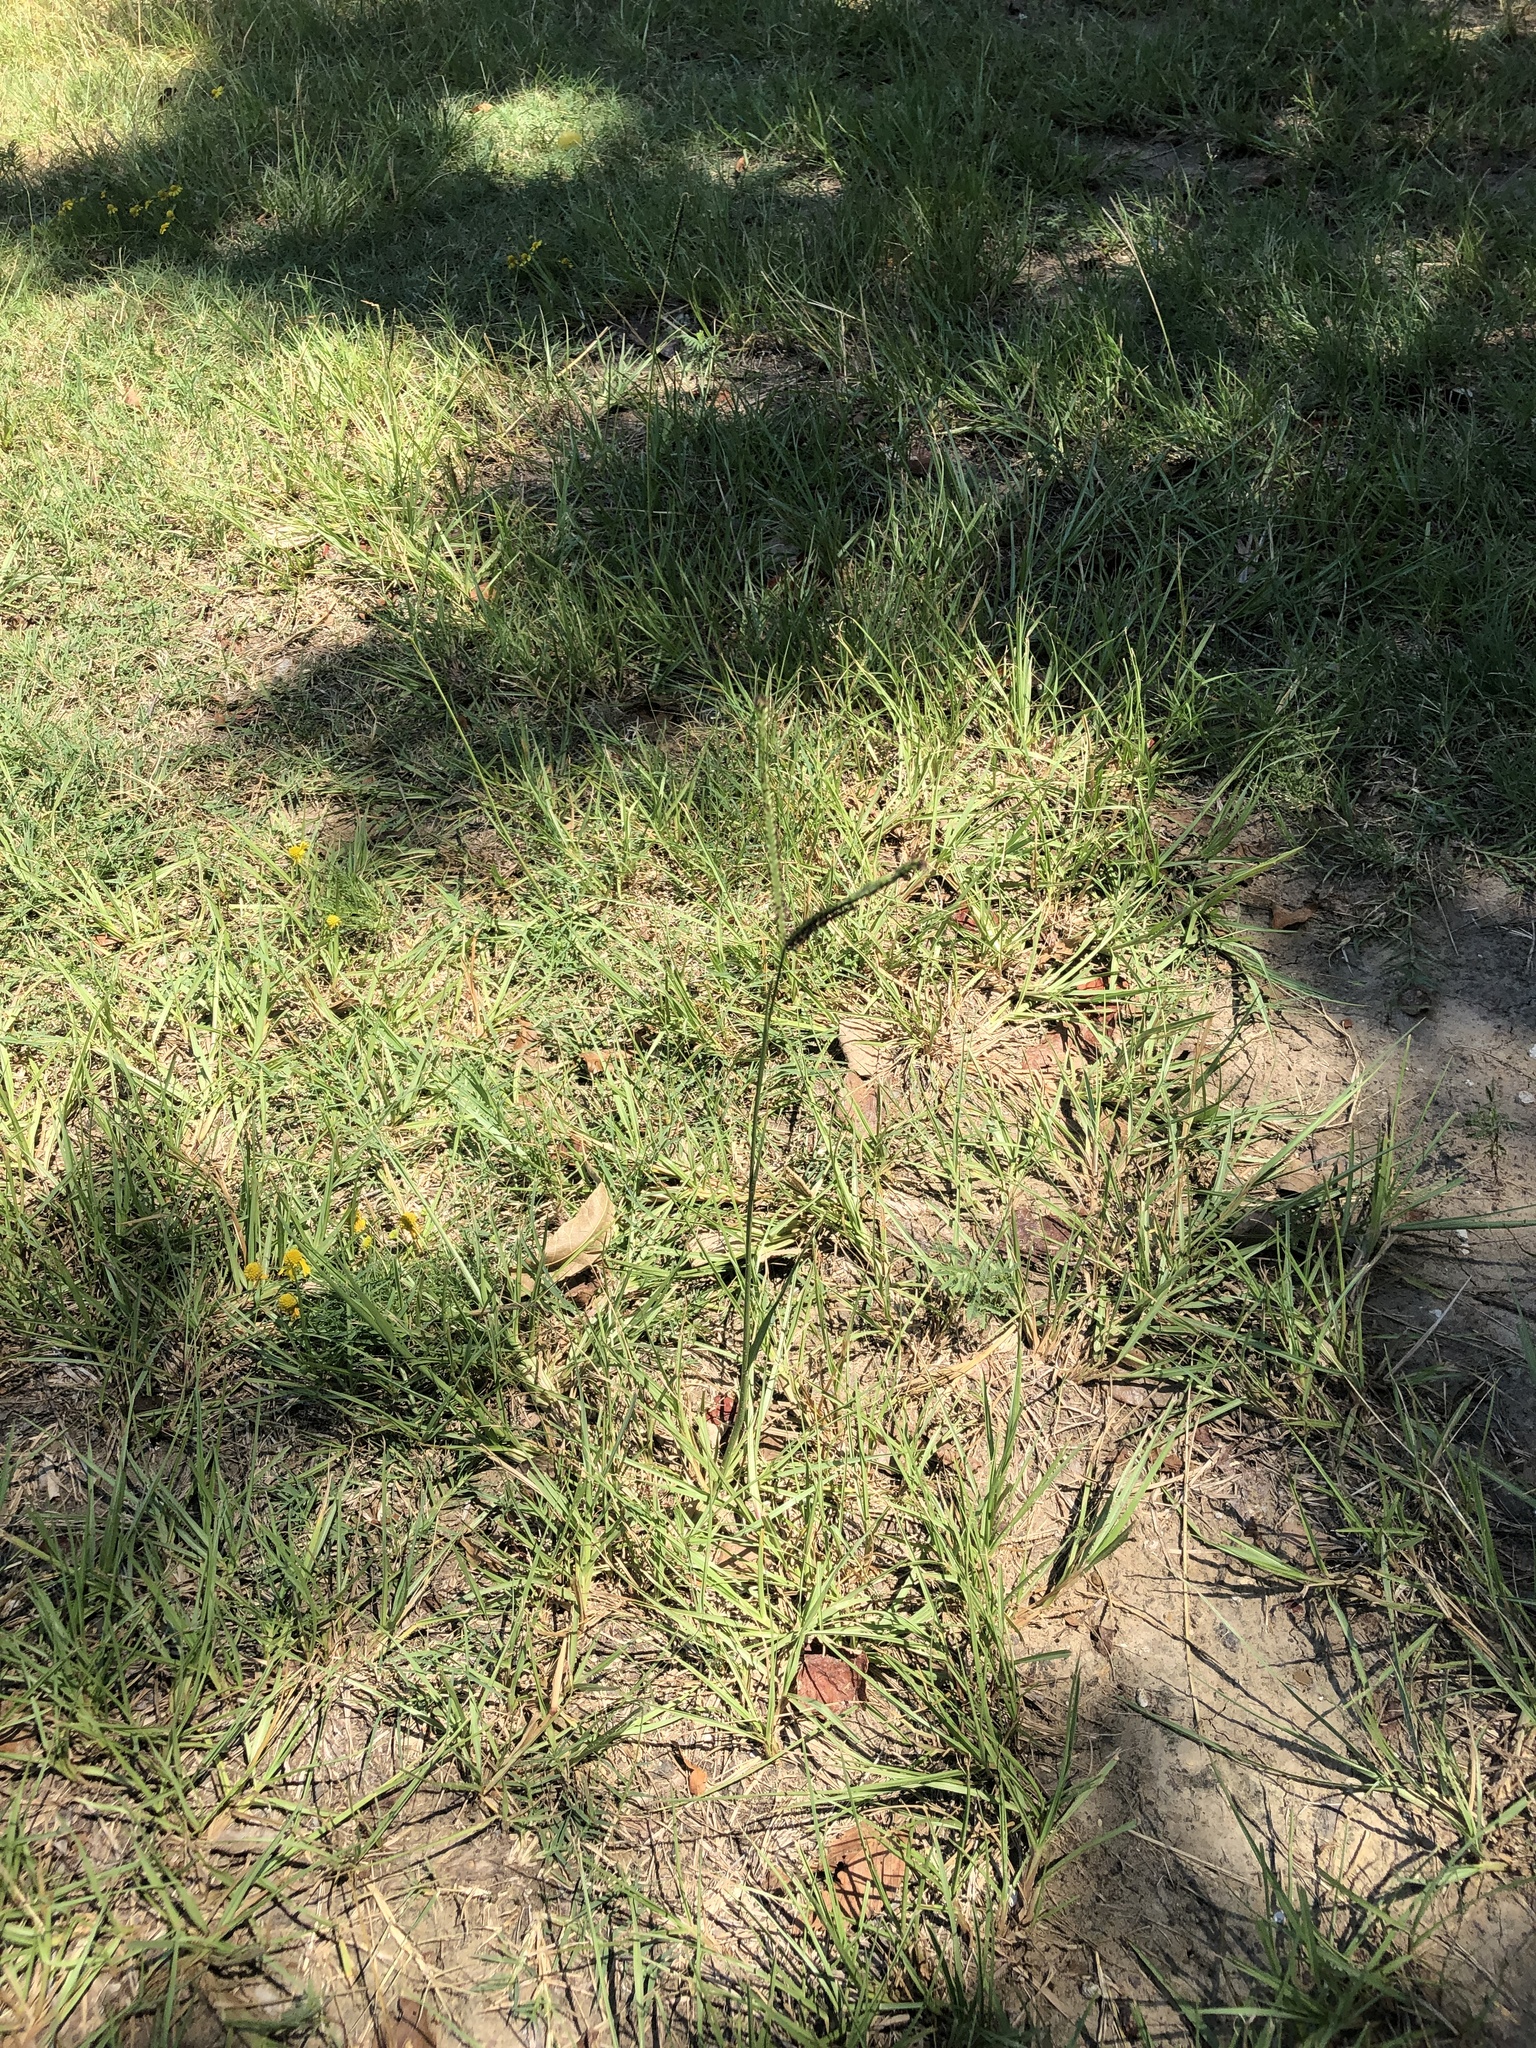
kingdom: Plantae
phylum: Tracheophyta
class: Liliopsida
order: Poales
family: Poaceae
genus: Paspalum
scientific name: Paspalum notatum
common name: Bahiagrass
